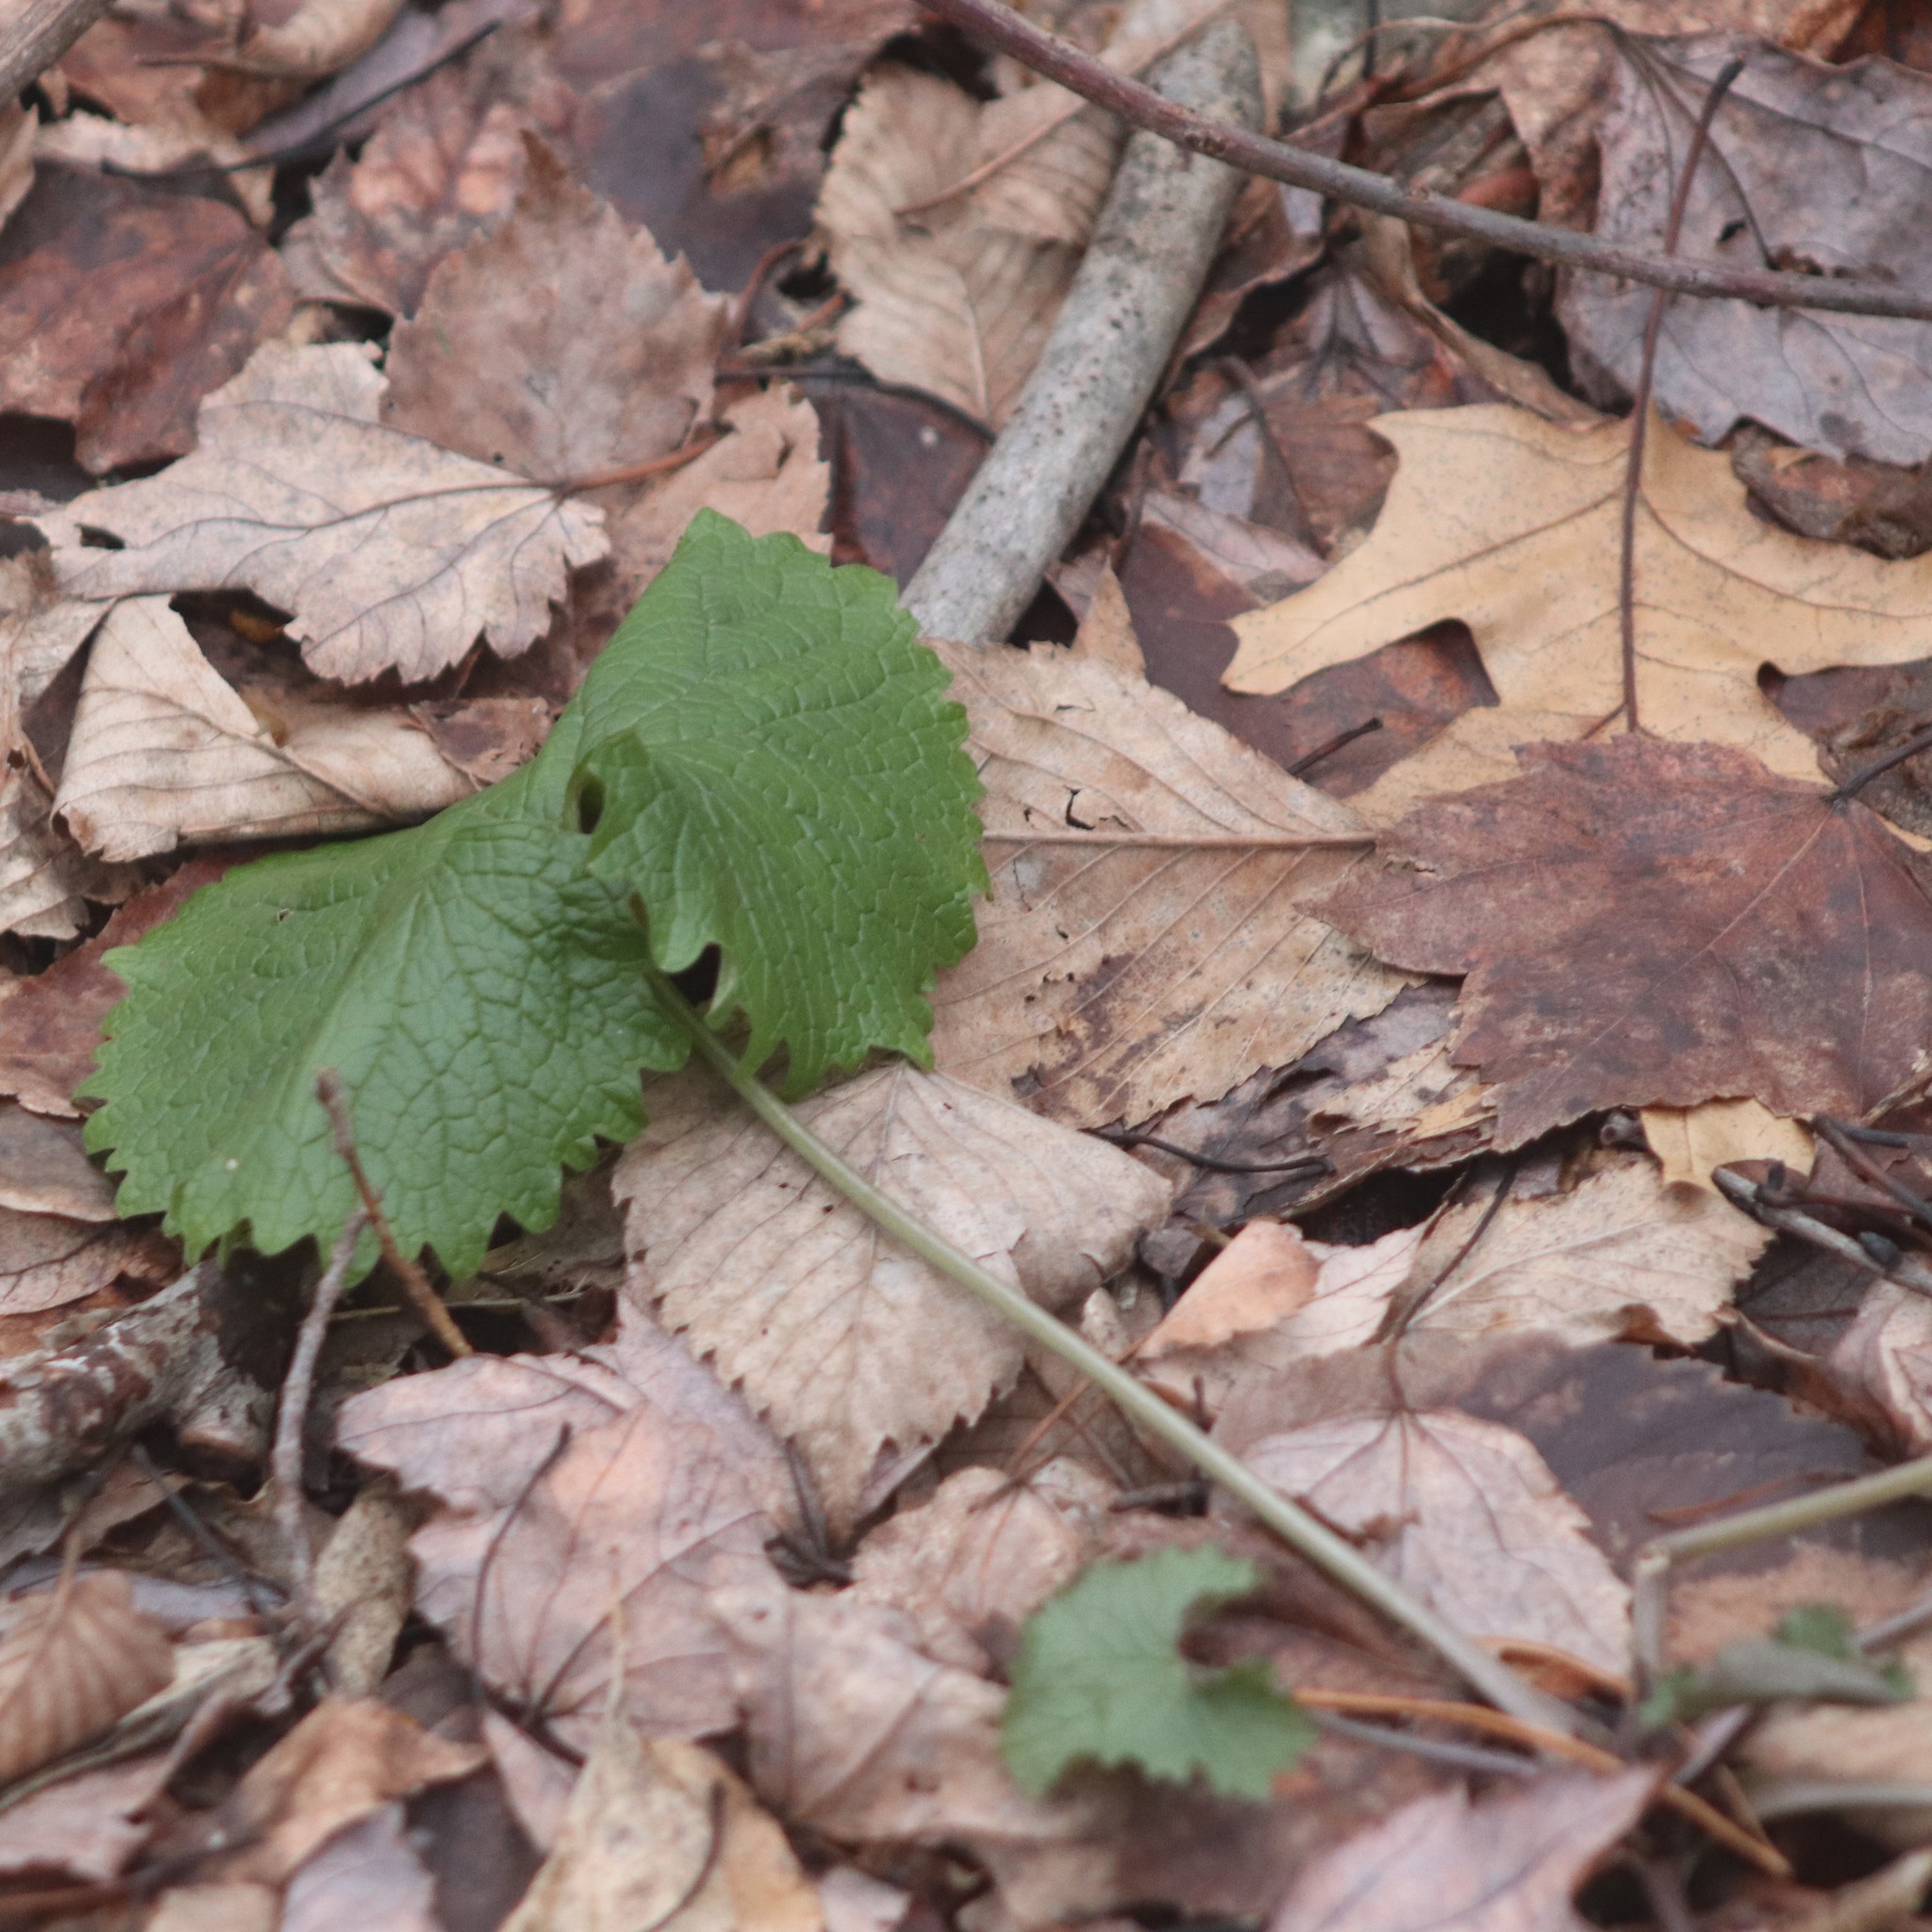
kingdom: Plantae
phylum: Tracheophyta
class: Magnoliopsida
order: Brassicales
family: Brassicaceae
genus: Alliaria
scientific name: Alliaria petiolata
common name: Garlic mustard
